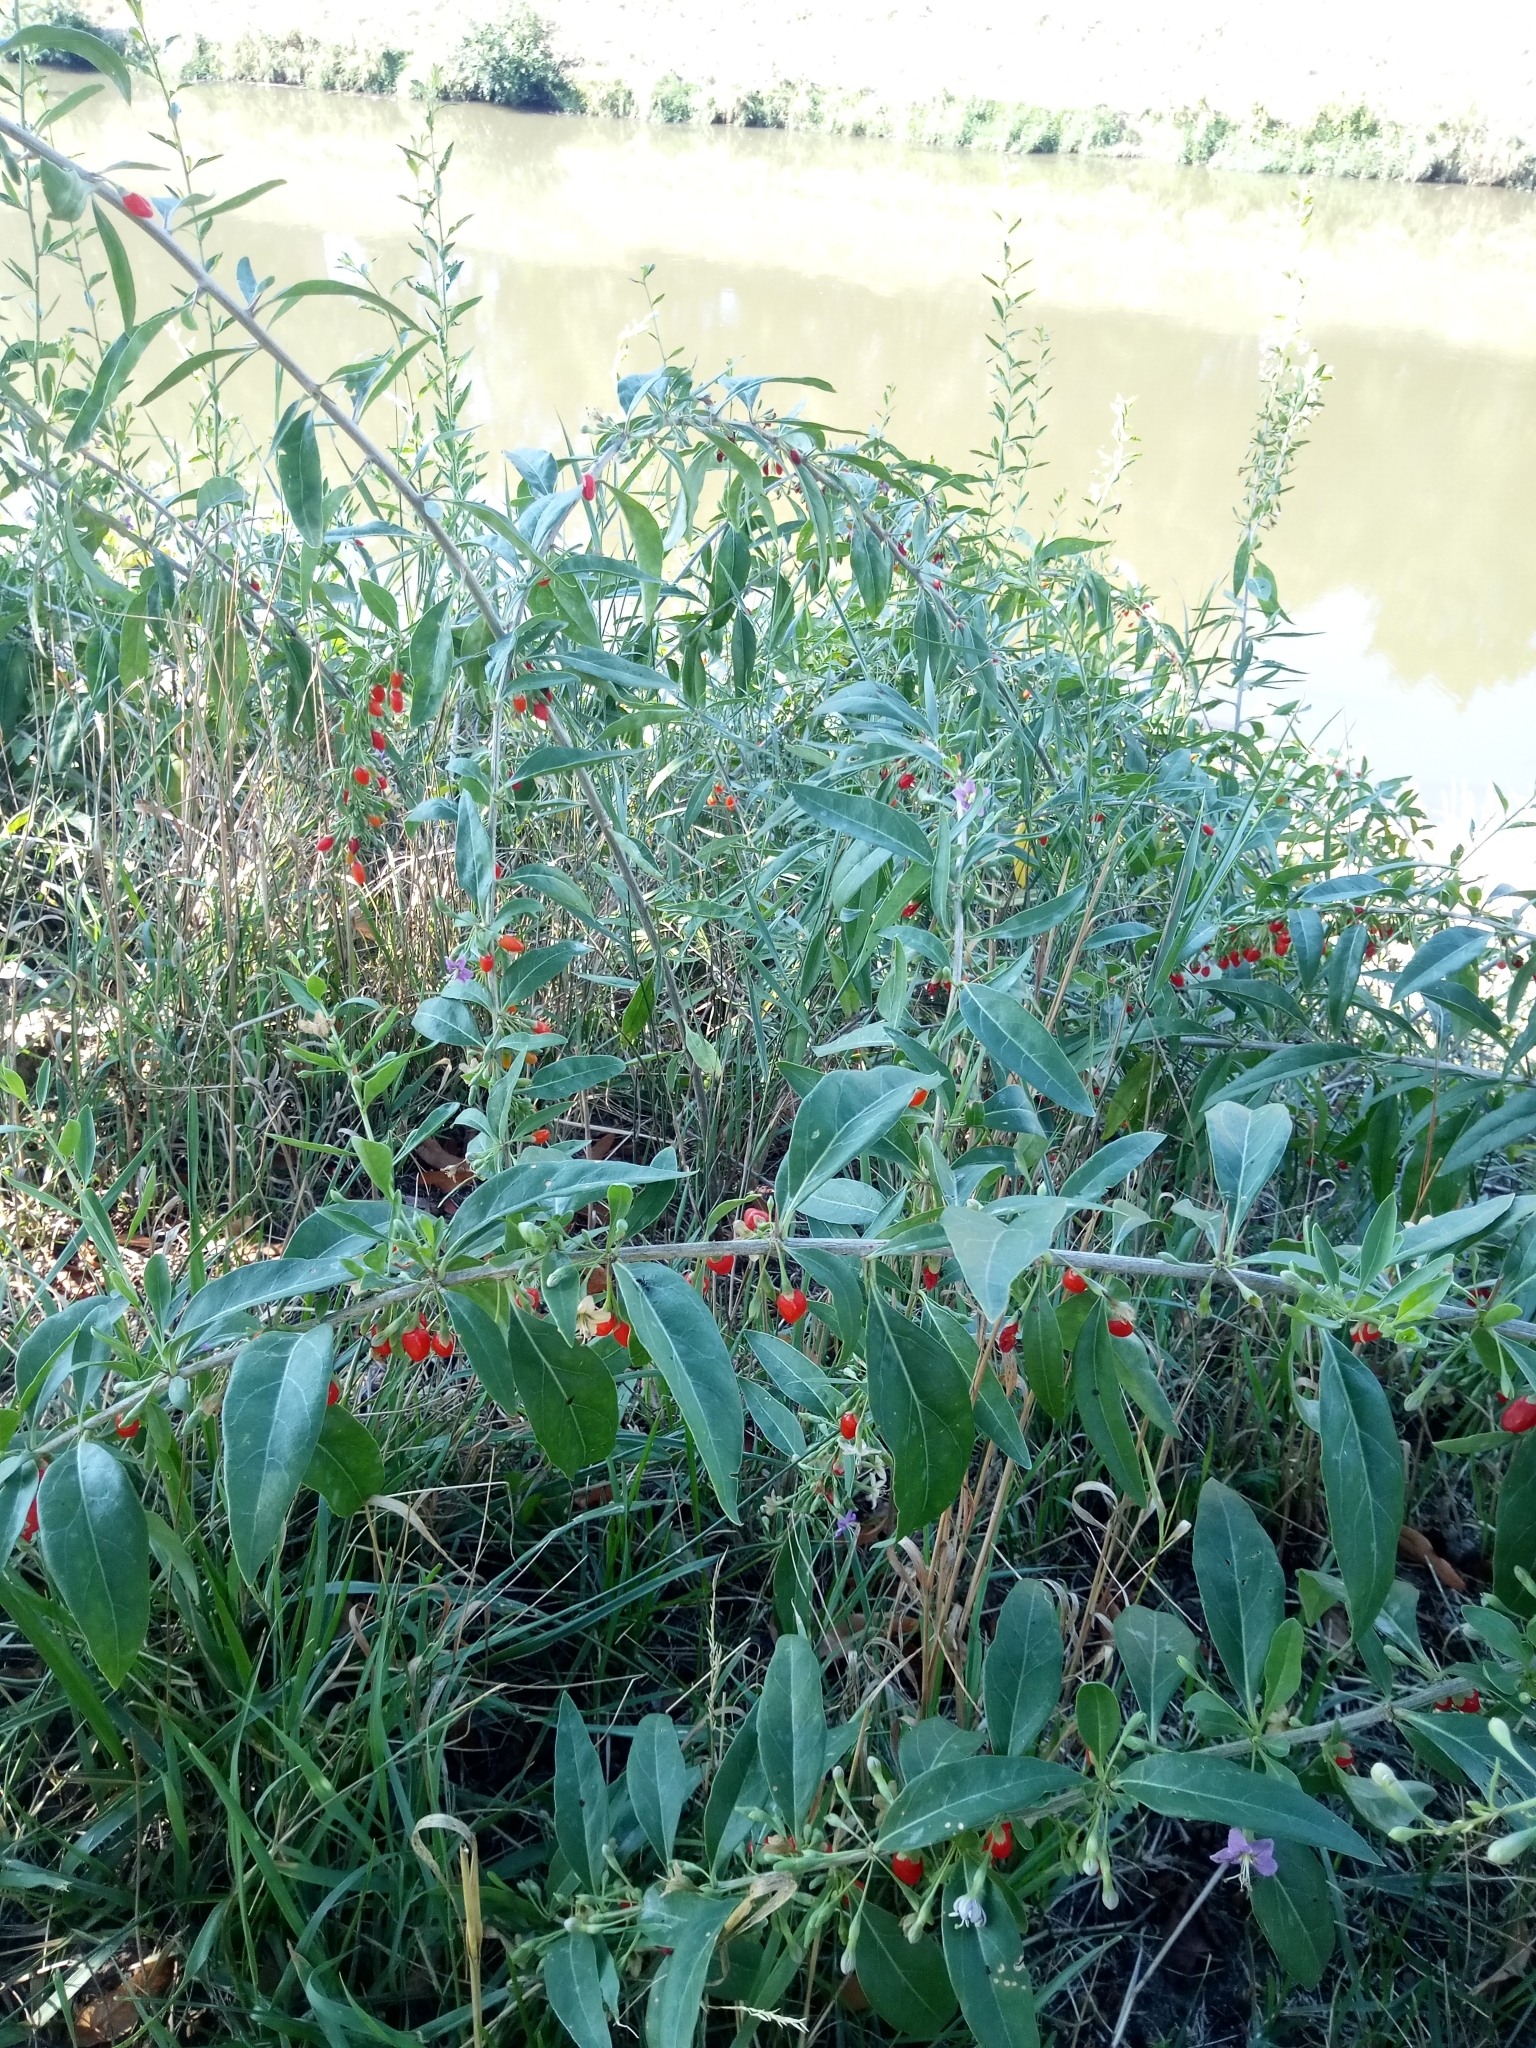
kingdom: Plantae
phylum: Tracheophyta
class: Magnoliopsida
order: Solanales
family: Solanaceae
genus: Lycium
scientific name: Lycium barbarum
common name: Duke of argyll's teaplant
